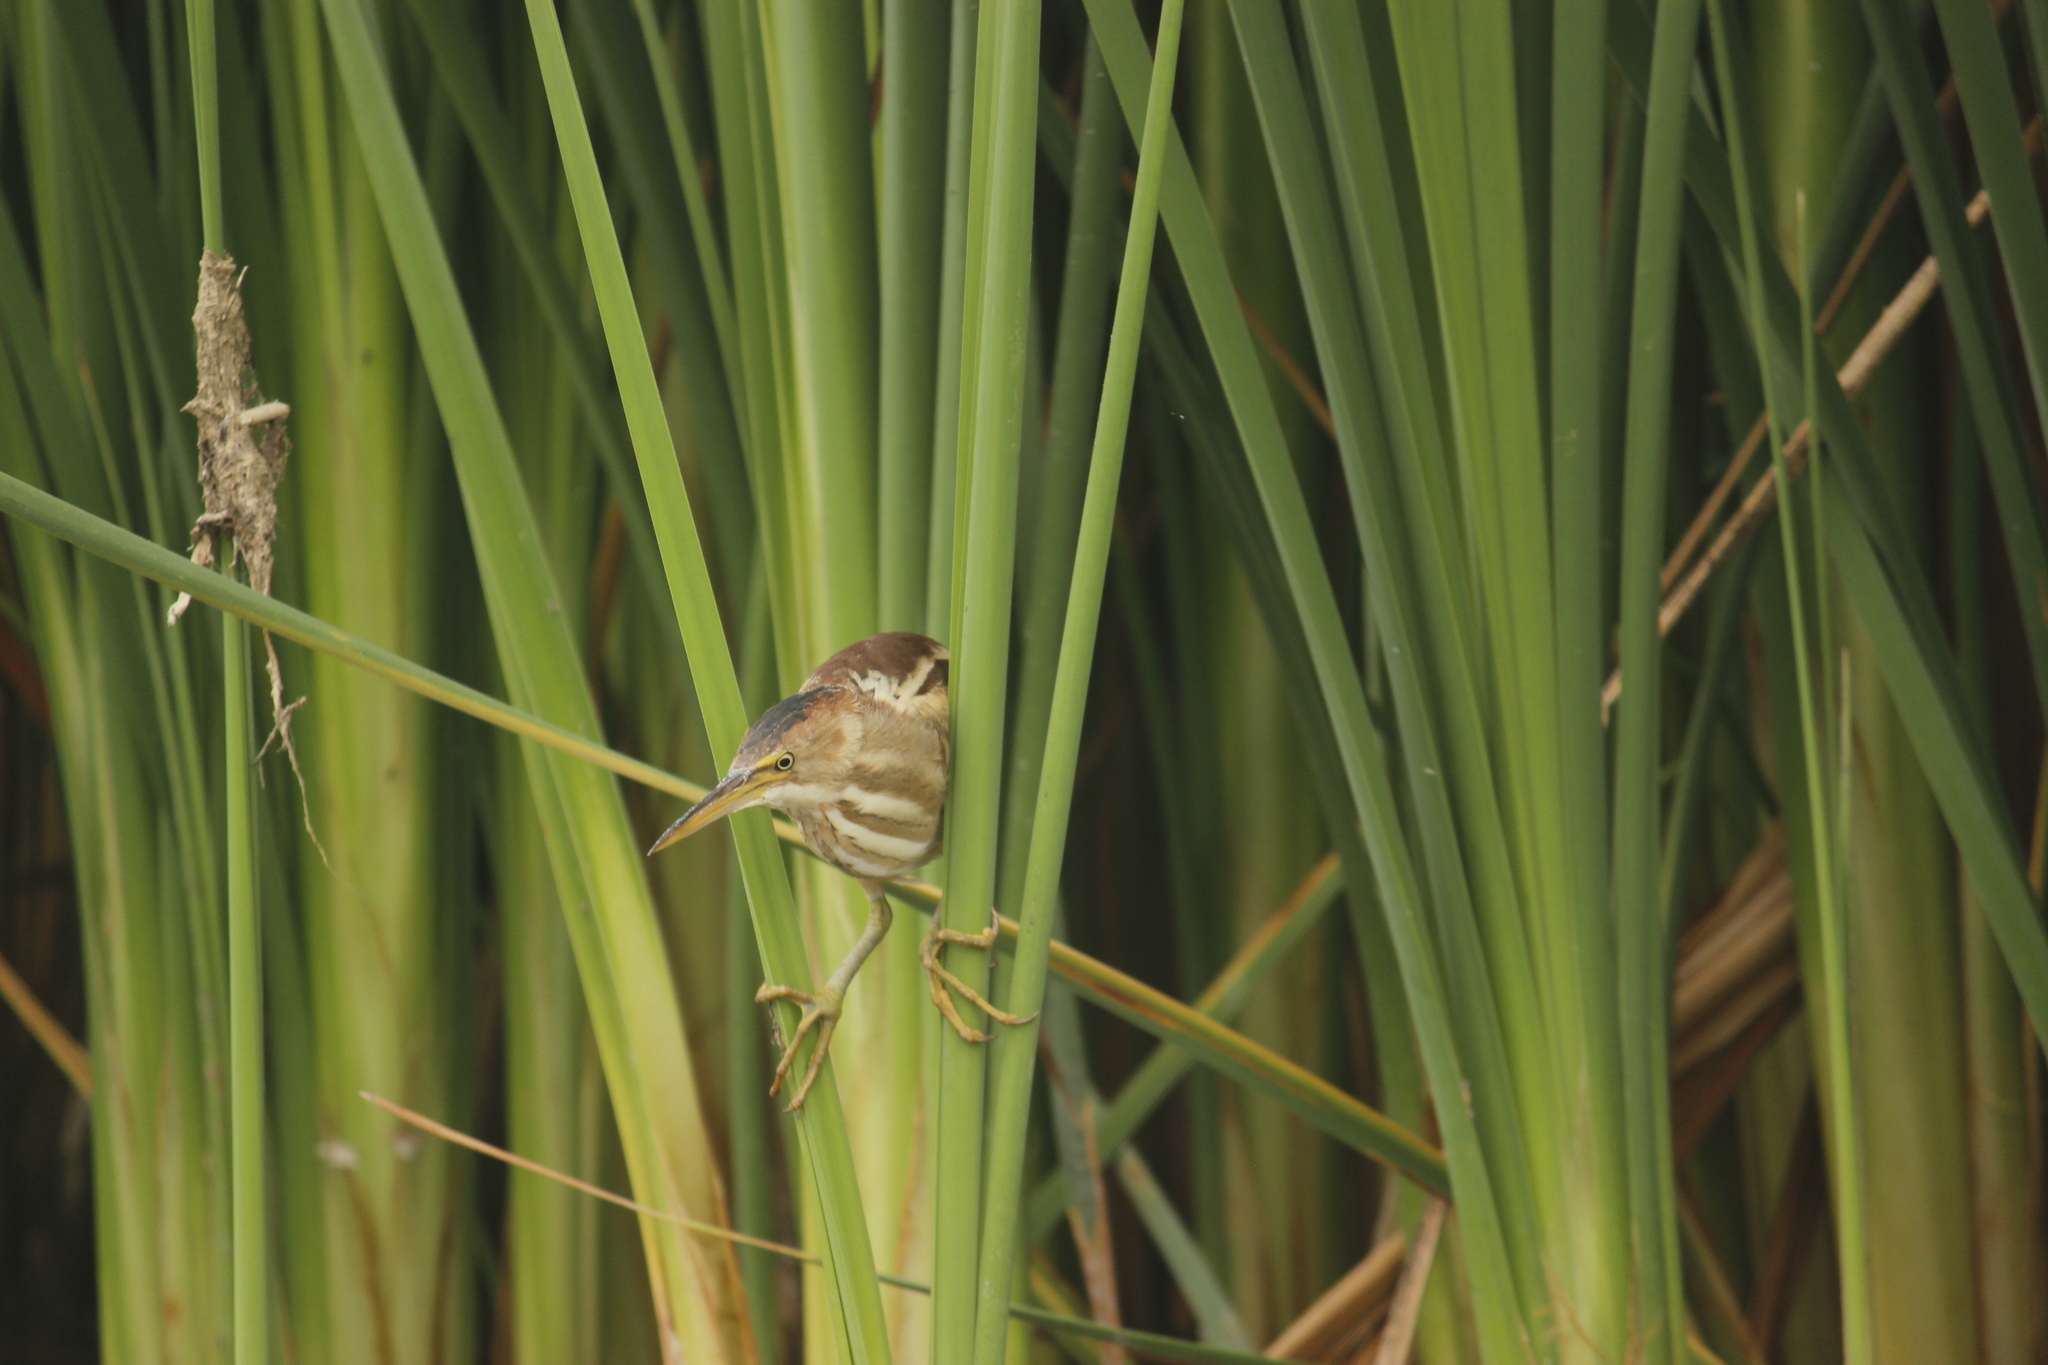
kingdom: Animalia
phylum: Chordata
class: Aves
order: Pelecaniformes
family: Ardeidae
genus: Ixobrychus
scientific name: Ixobrychus exilis
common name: Least bittern
